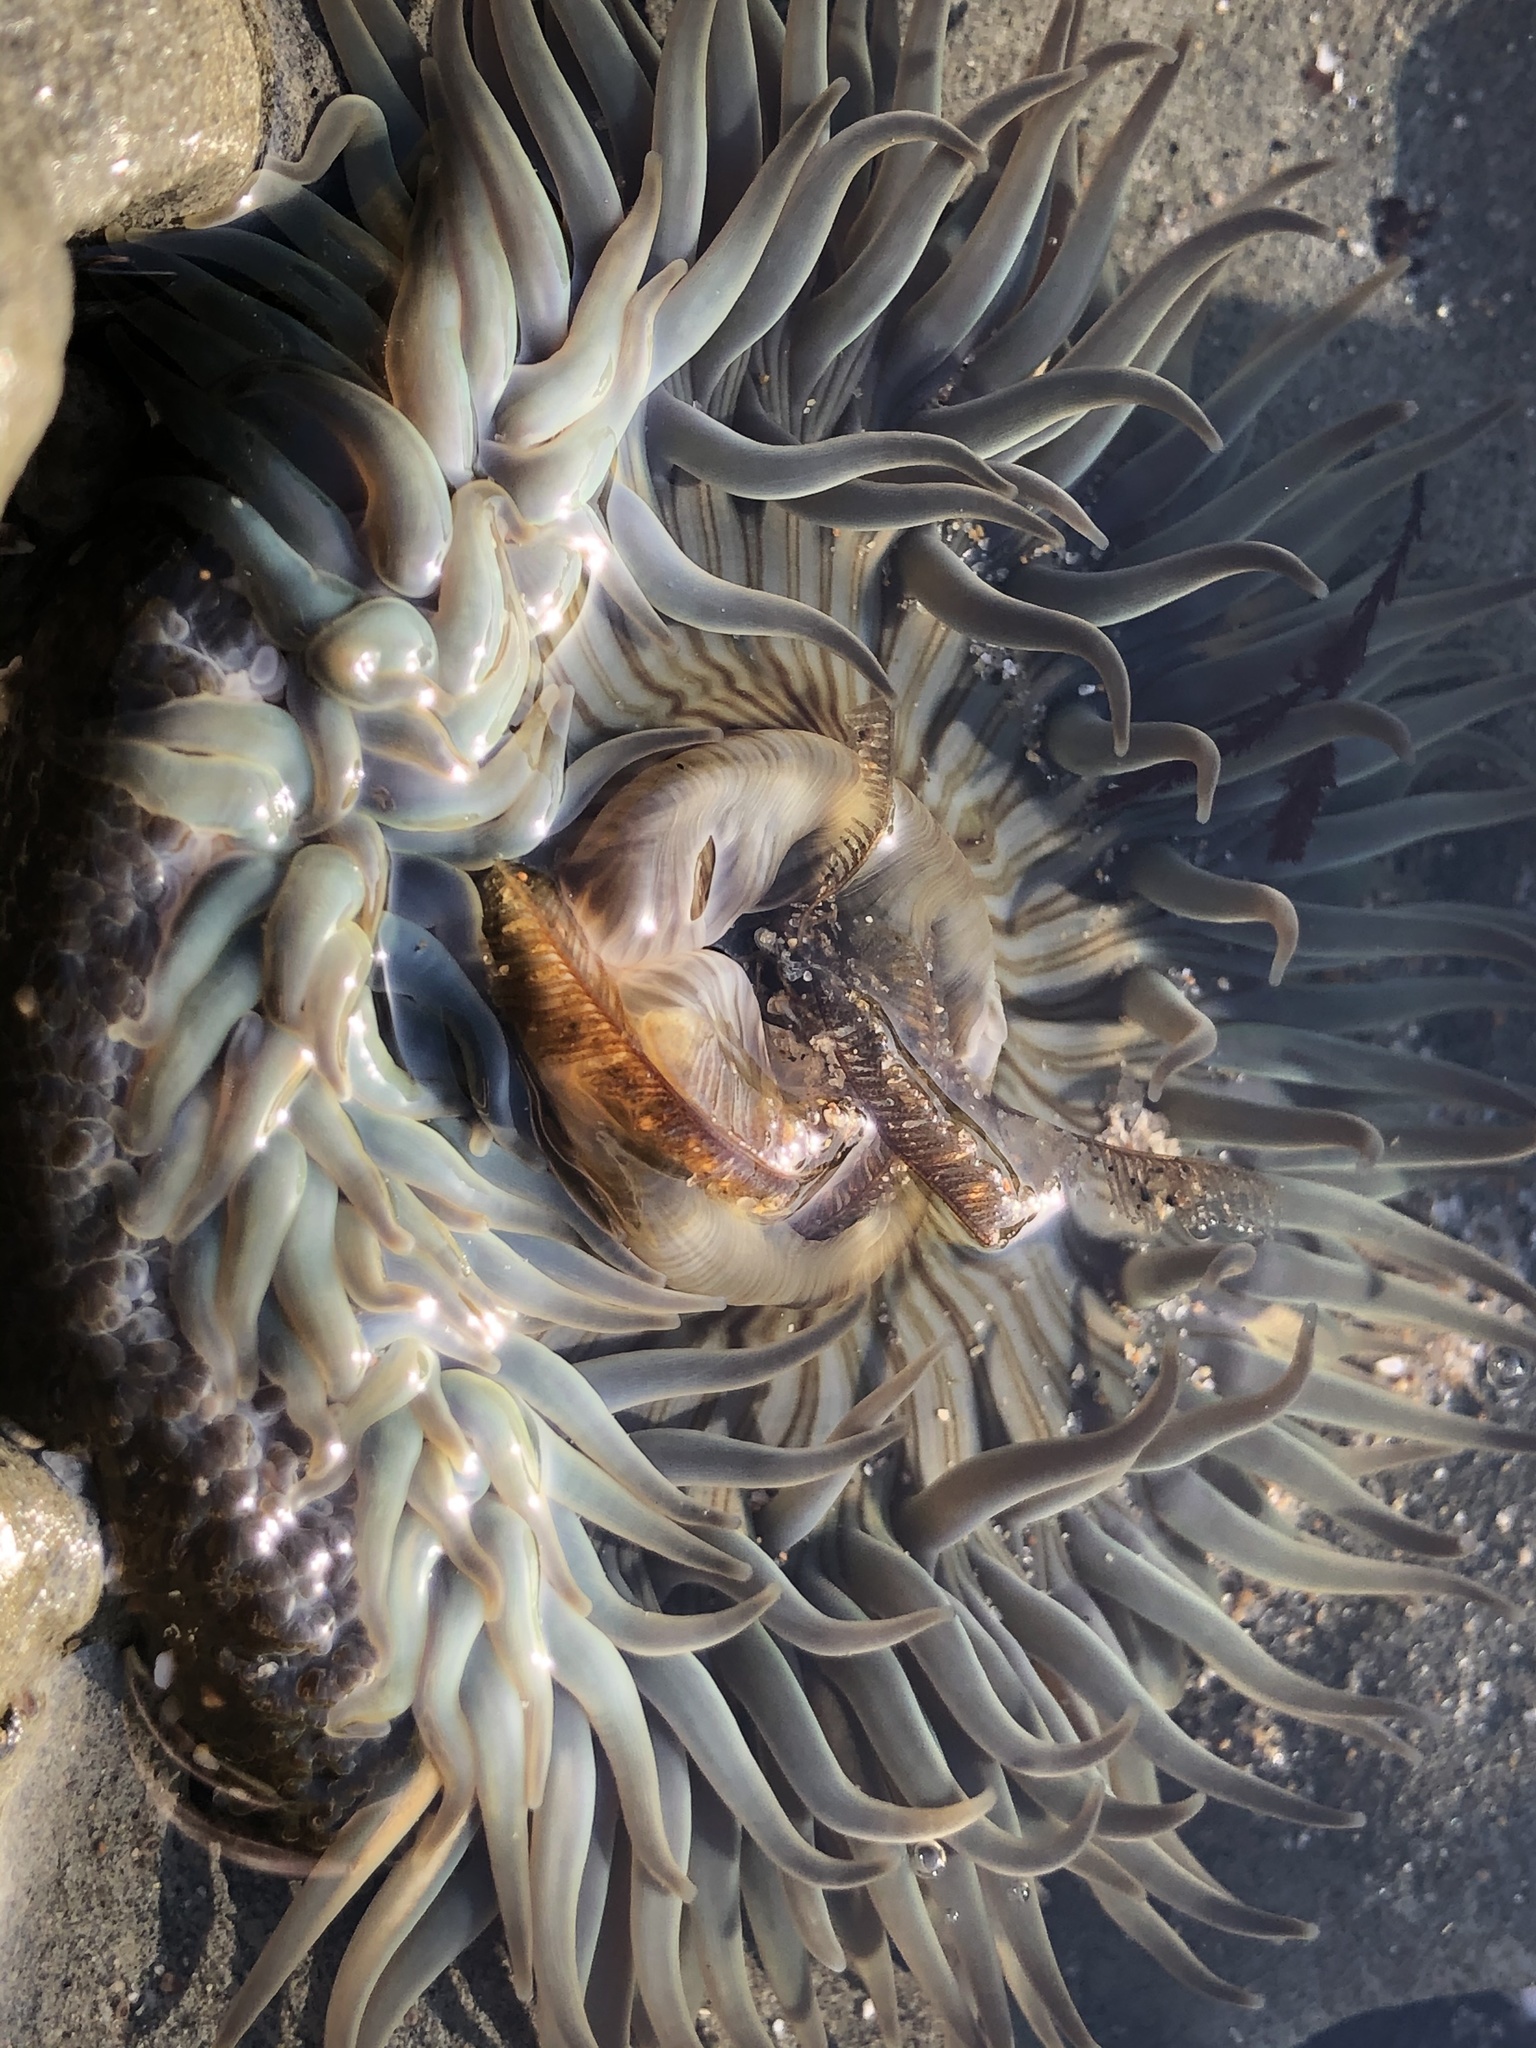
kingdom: Animalia
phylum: Cnidaria
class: Anthozoa
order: Actiniaria
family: Actiniidae
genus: Anthopleura
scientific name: Anthopleura sola
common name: Sun anemone
